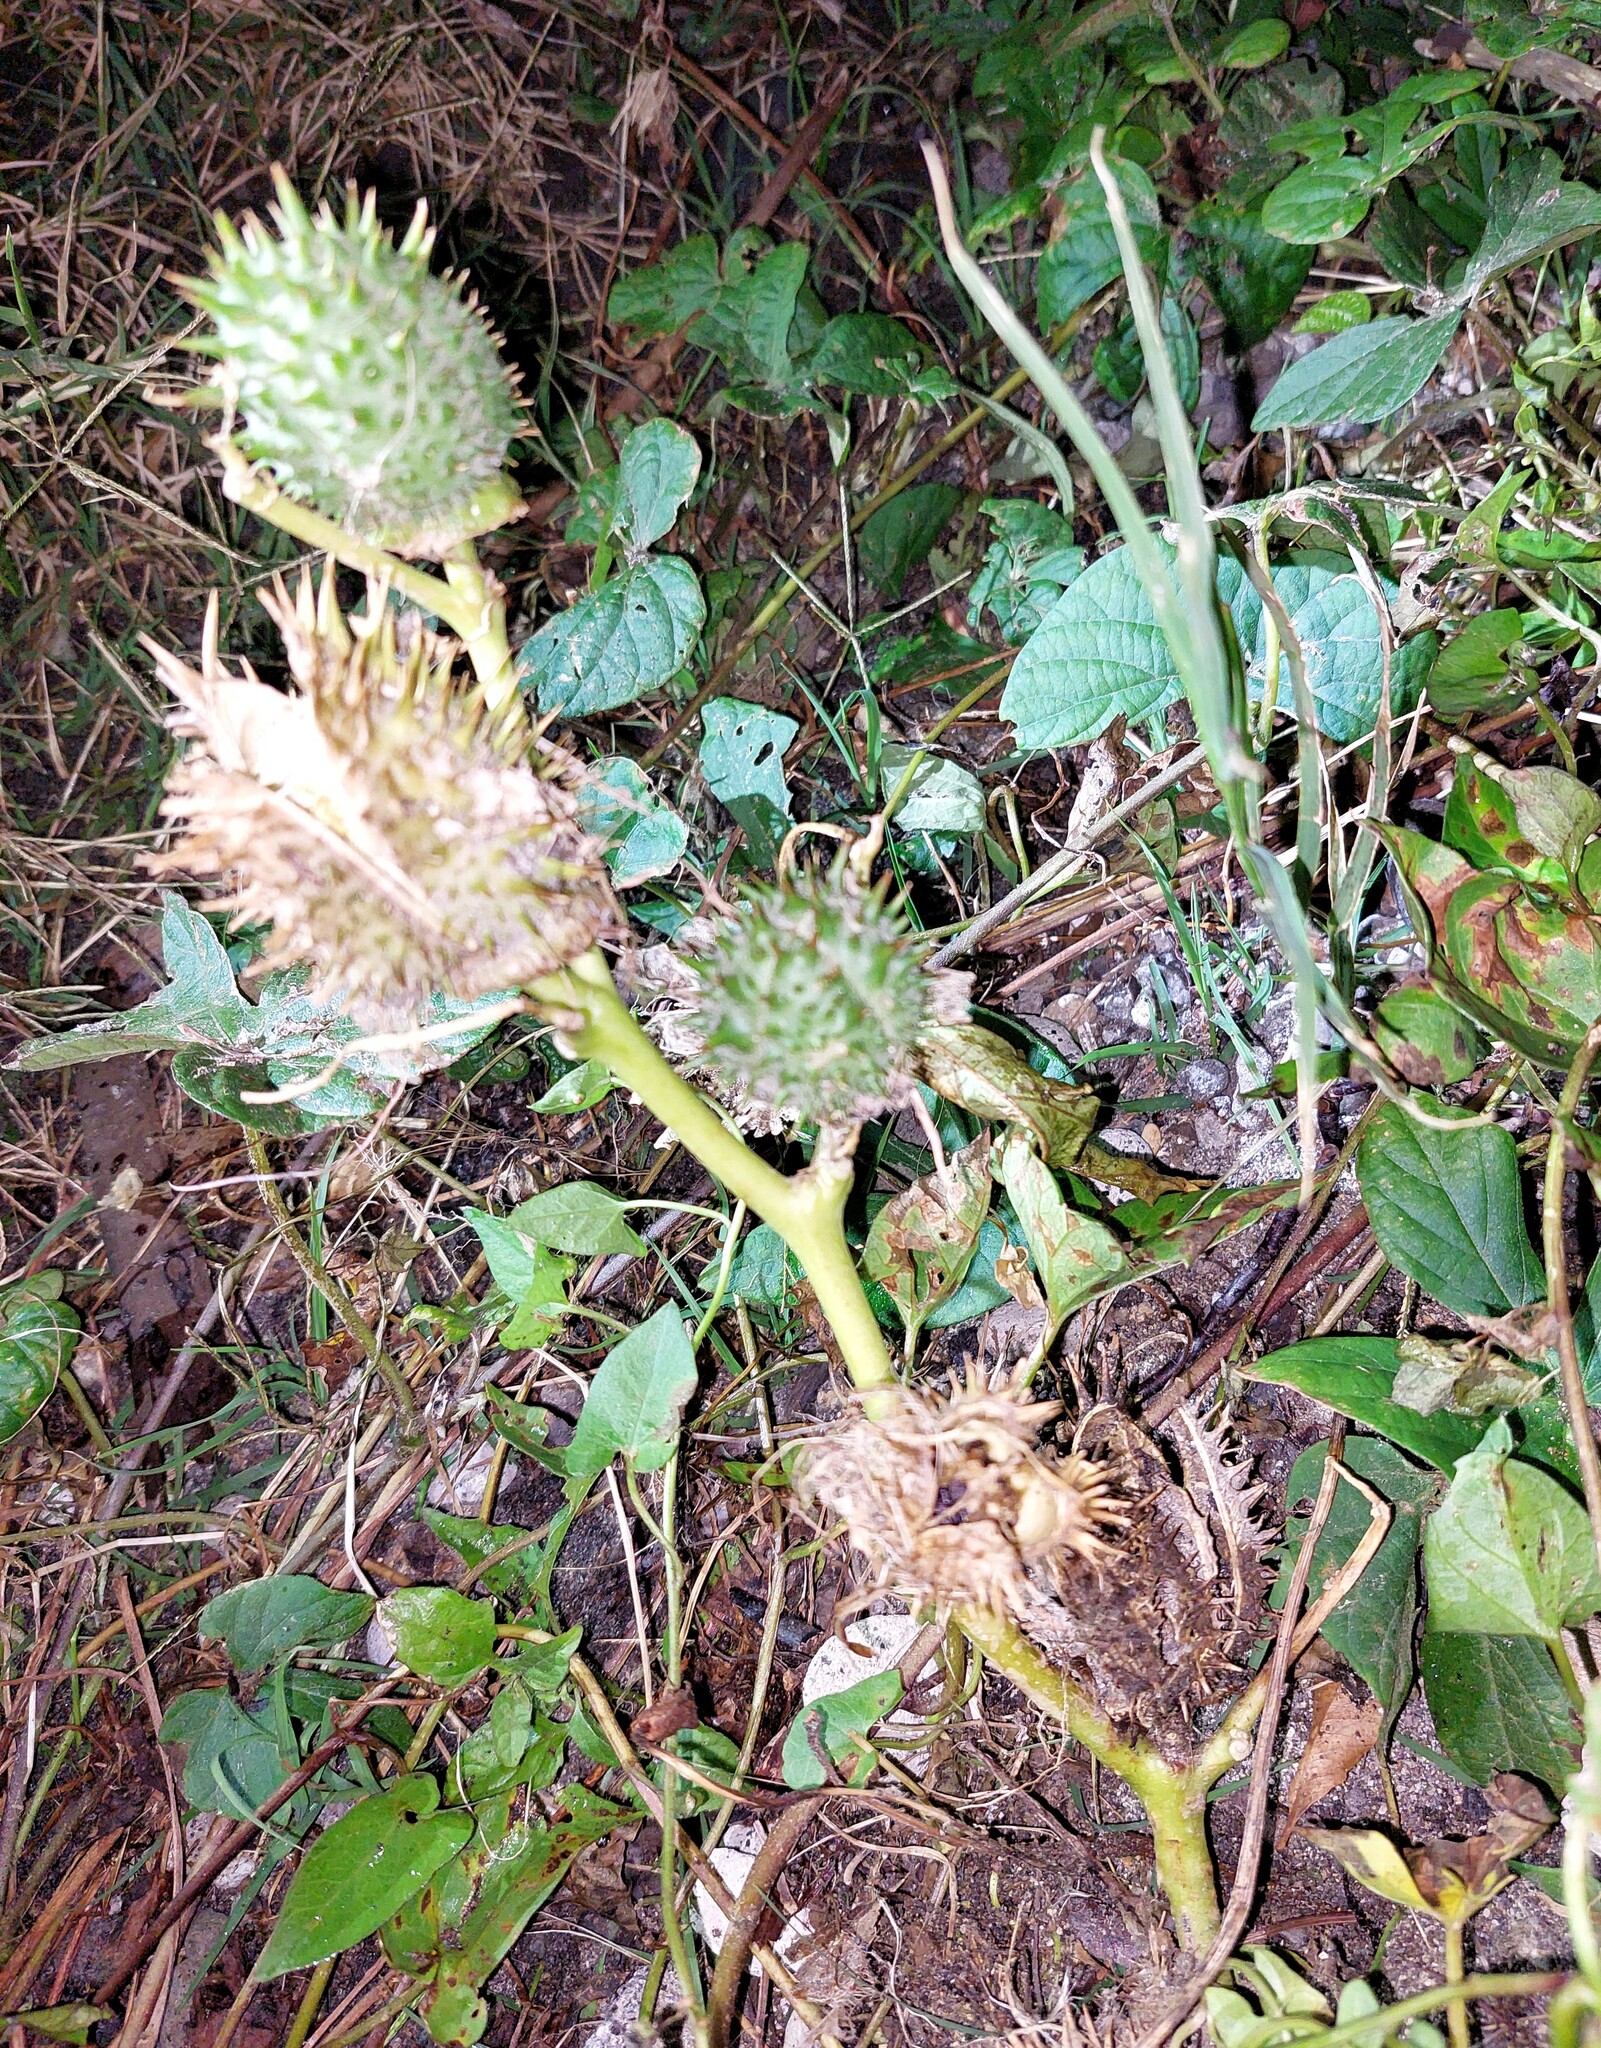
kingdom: Plantae
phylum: Tracheophyta
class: Magnoliopsida
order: Solanales
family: Solanaceae
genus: Datura
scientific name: Datura stramonium
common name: Thorn-apple
